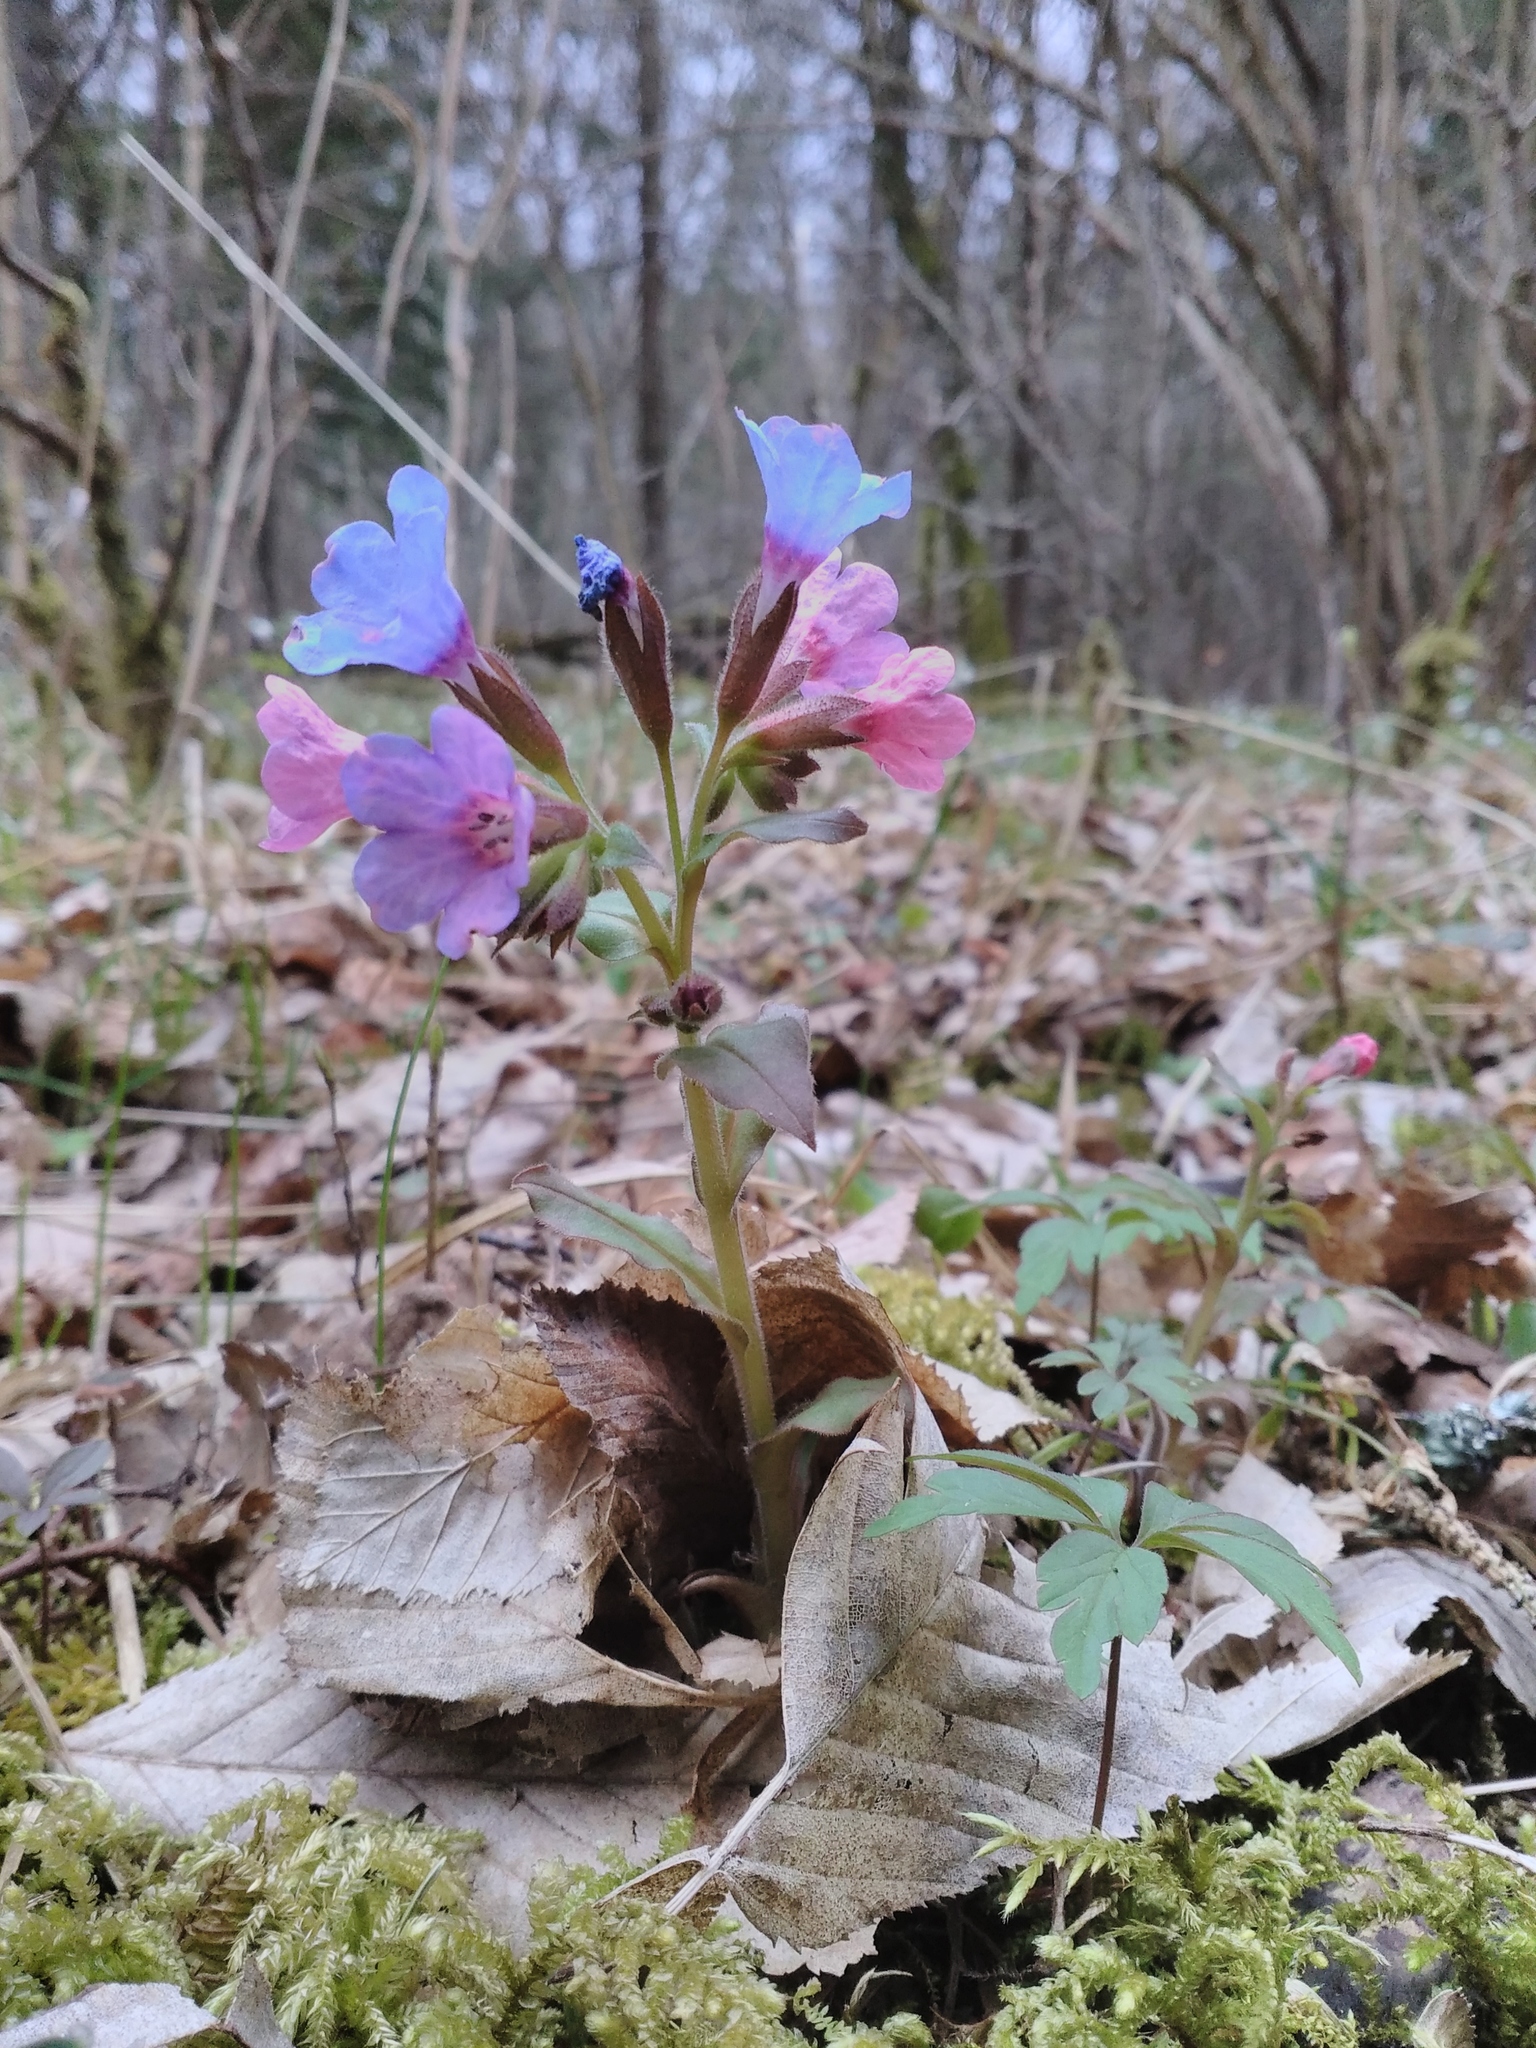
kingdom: Plantae
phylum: Tracheophyta
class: Magnoliopsida
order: Boraginales
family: Boraginaceae
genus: Pulmonaria
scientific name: Pulmonaria obscura
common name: Suffolk lungwort
